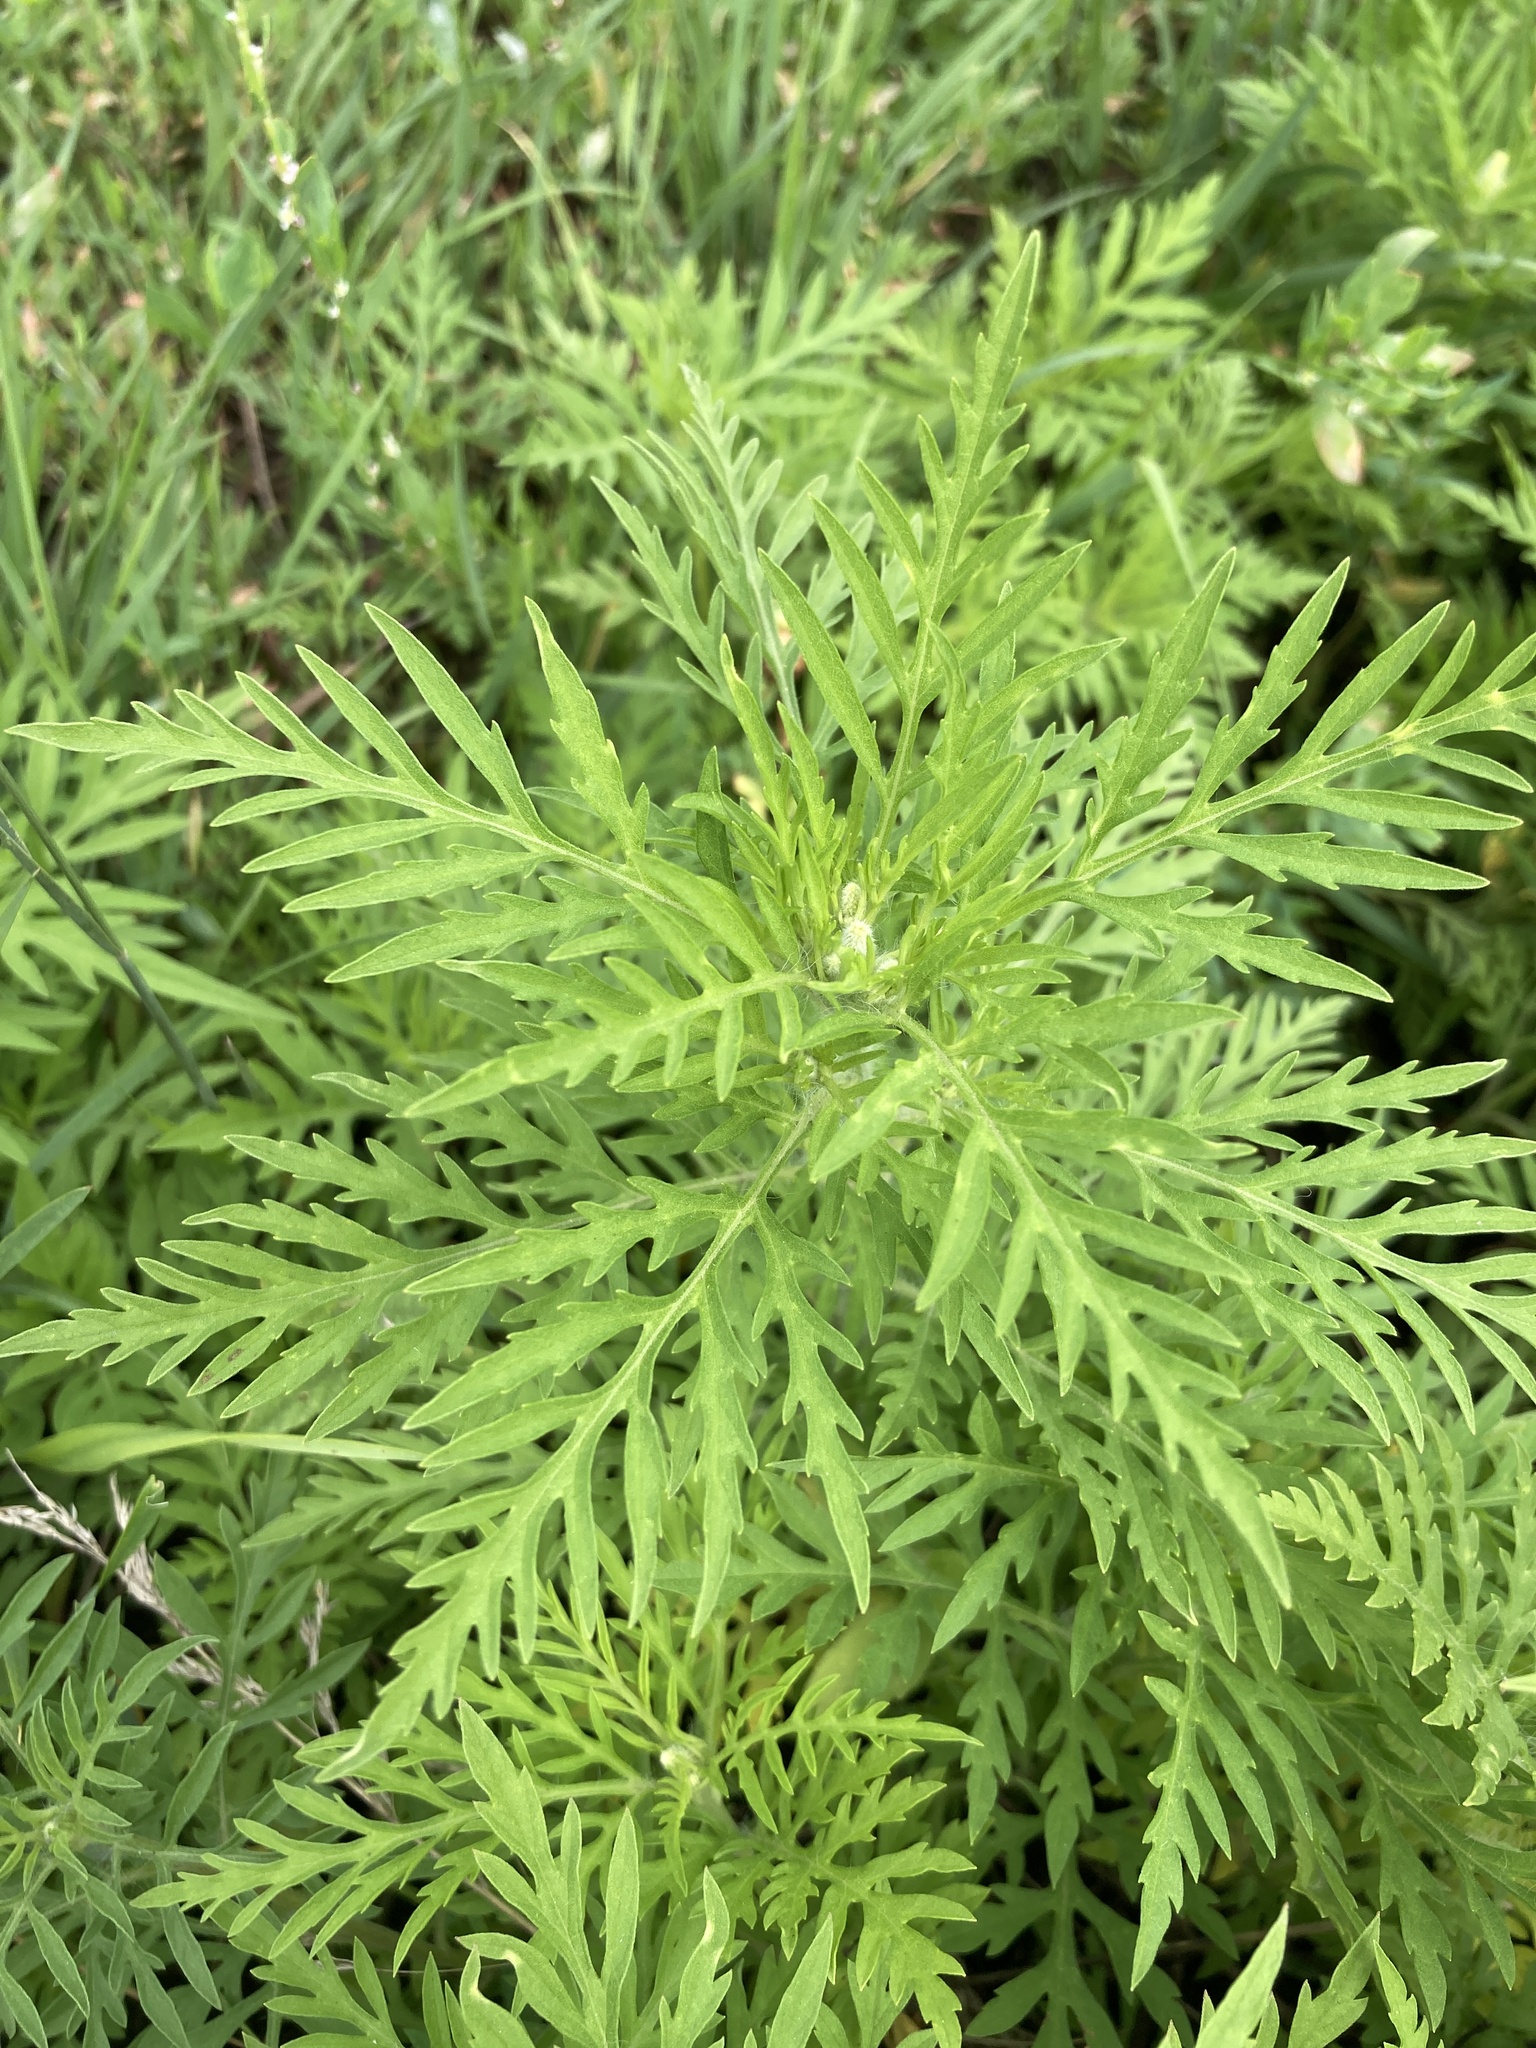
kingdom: Plantae
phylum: Tracheophyta
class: Magnoliopsida
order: Asterales
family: Asteraceae
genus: Ambrosia
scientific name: Ambrosia artemisiifolia
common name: Annual ragweed
